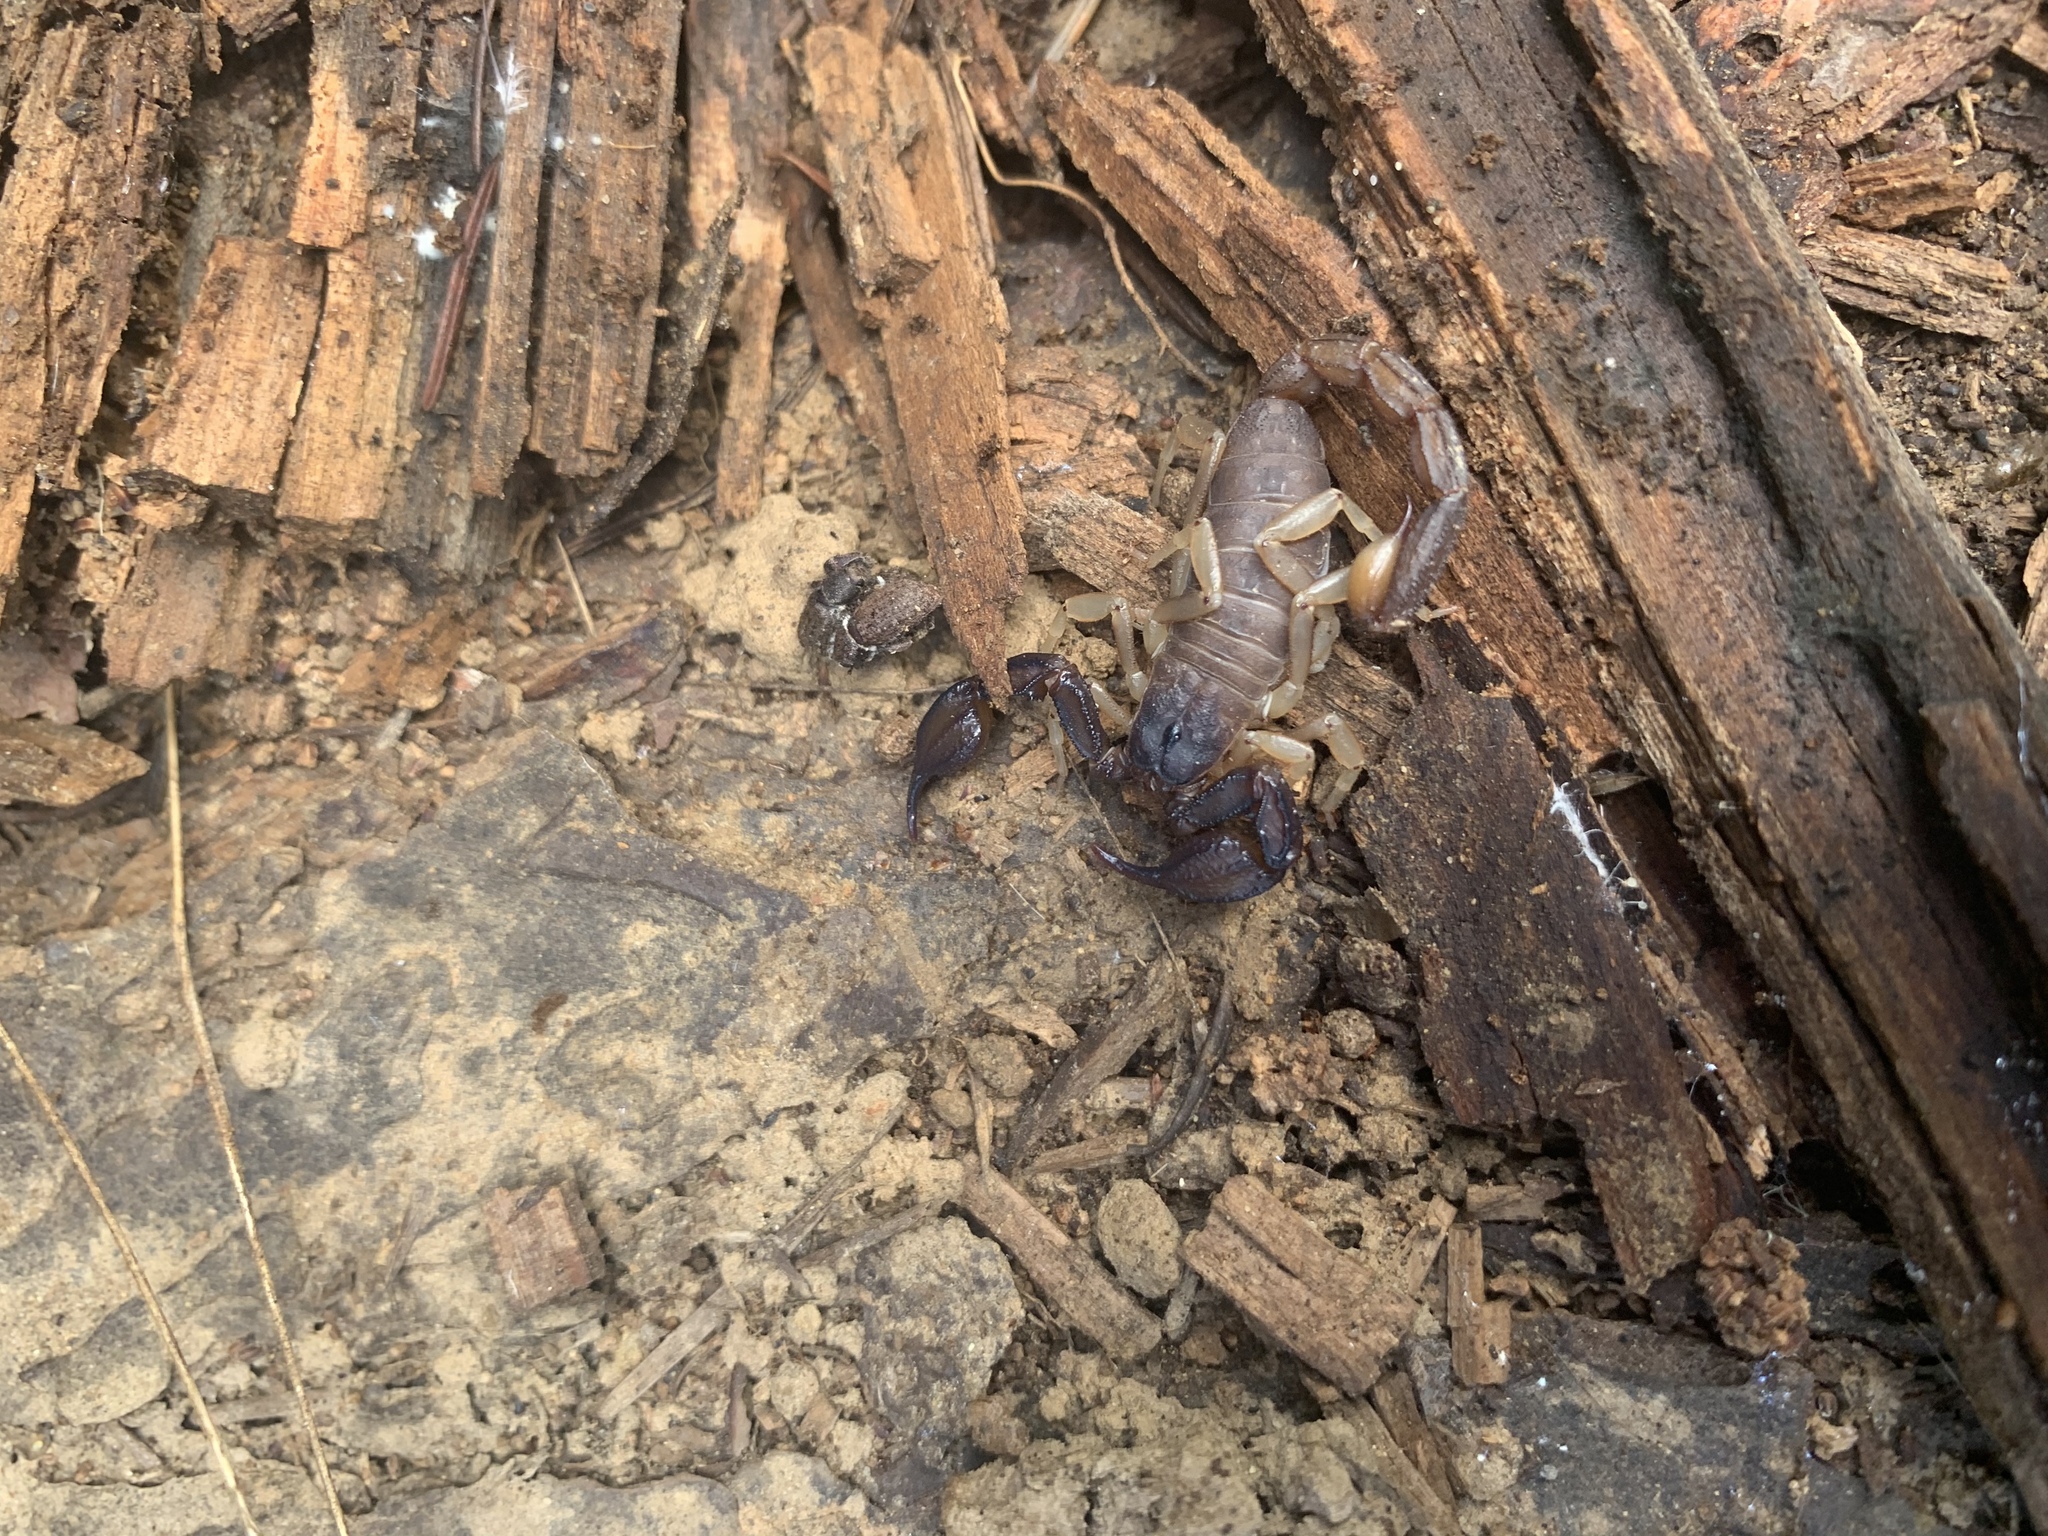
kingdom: Animalia
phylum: Arthropoda
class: Arachnida
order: Scorpiones
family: Chactidae
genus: Uroctonus
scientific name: Uroctonus mordax
